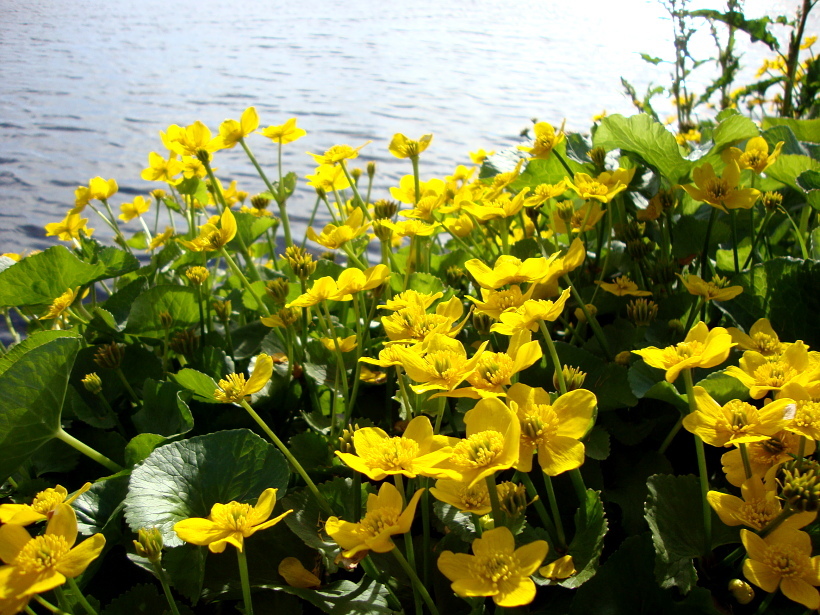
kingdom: Plantae
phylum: Tracheophyta
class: Magnoliopsida
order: Ranunculales
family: Ranunculaceae
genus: Caltha
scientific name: Caltha palustris
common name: Marsh marigold
